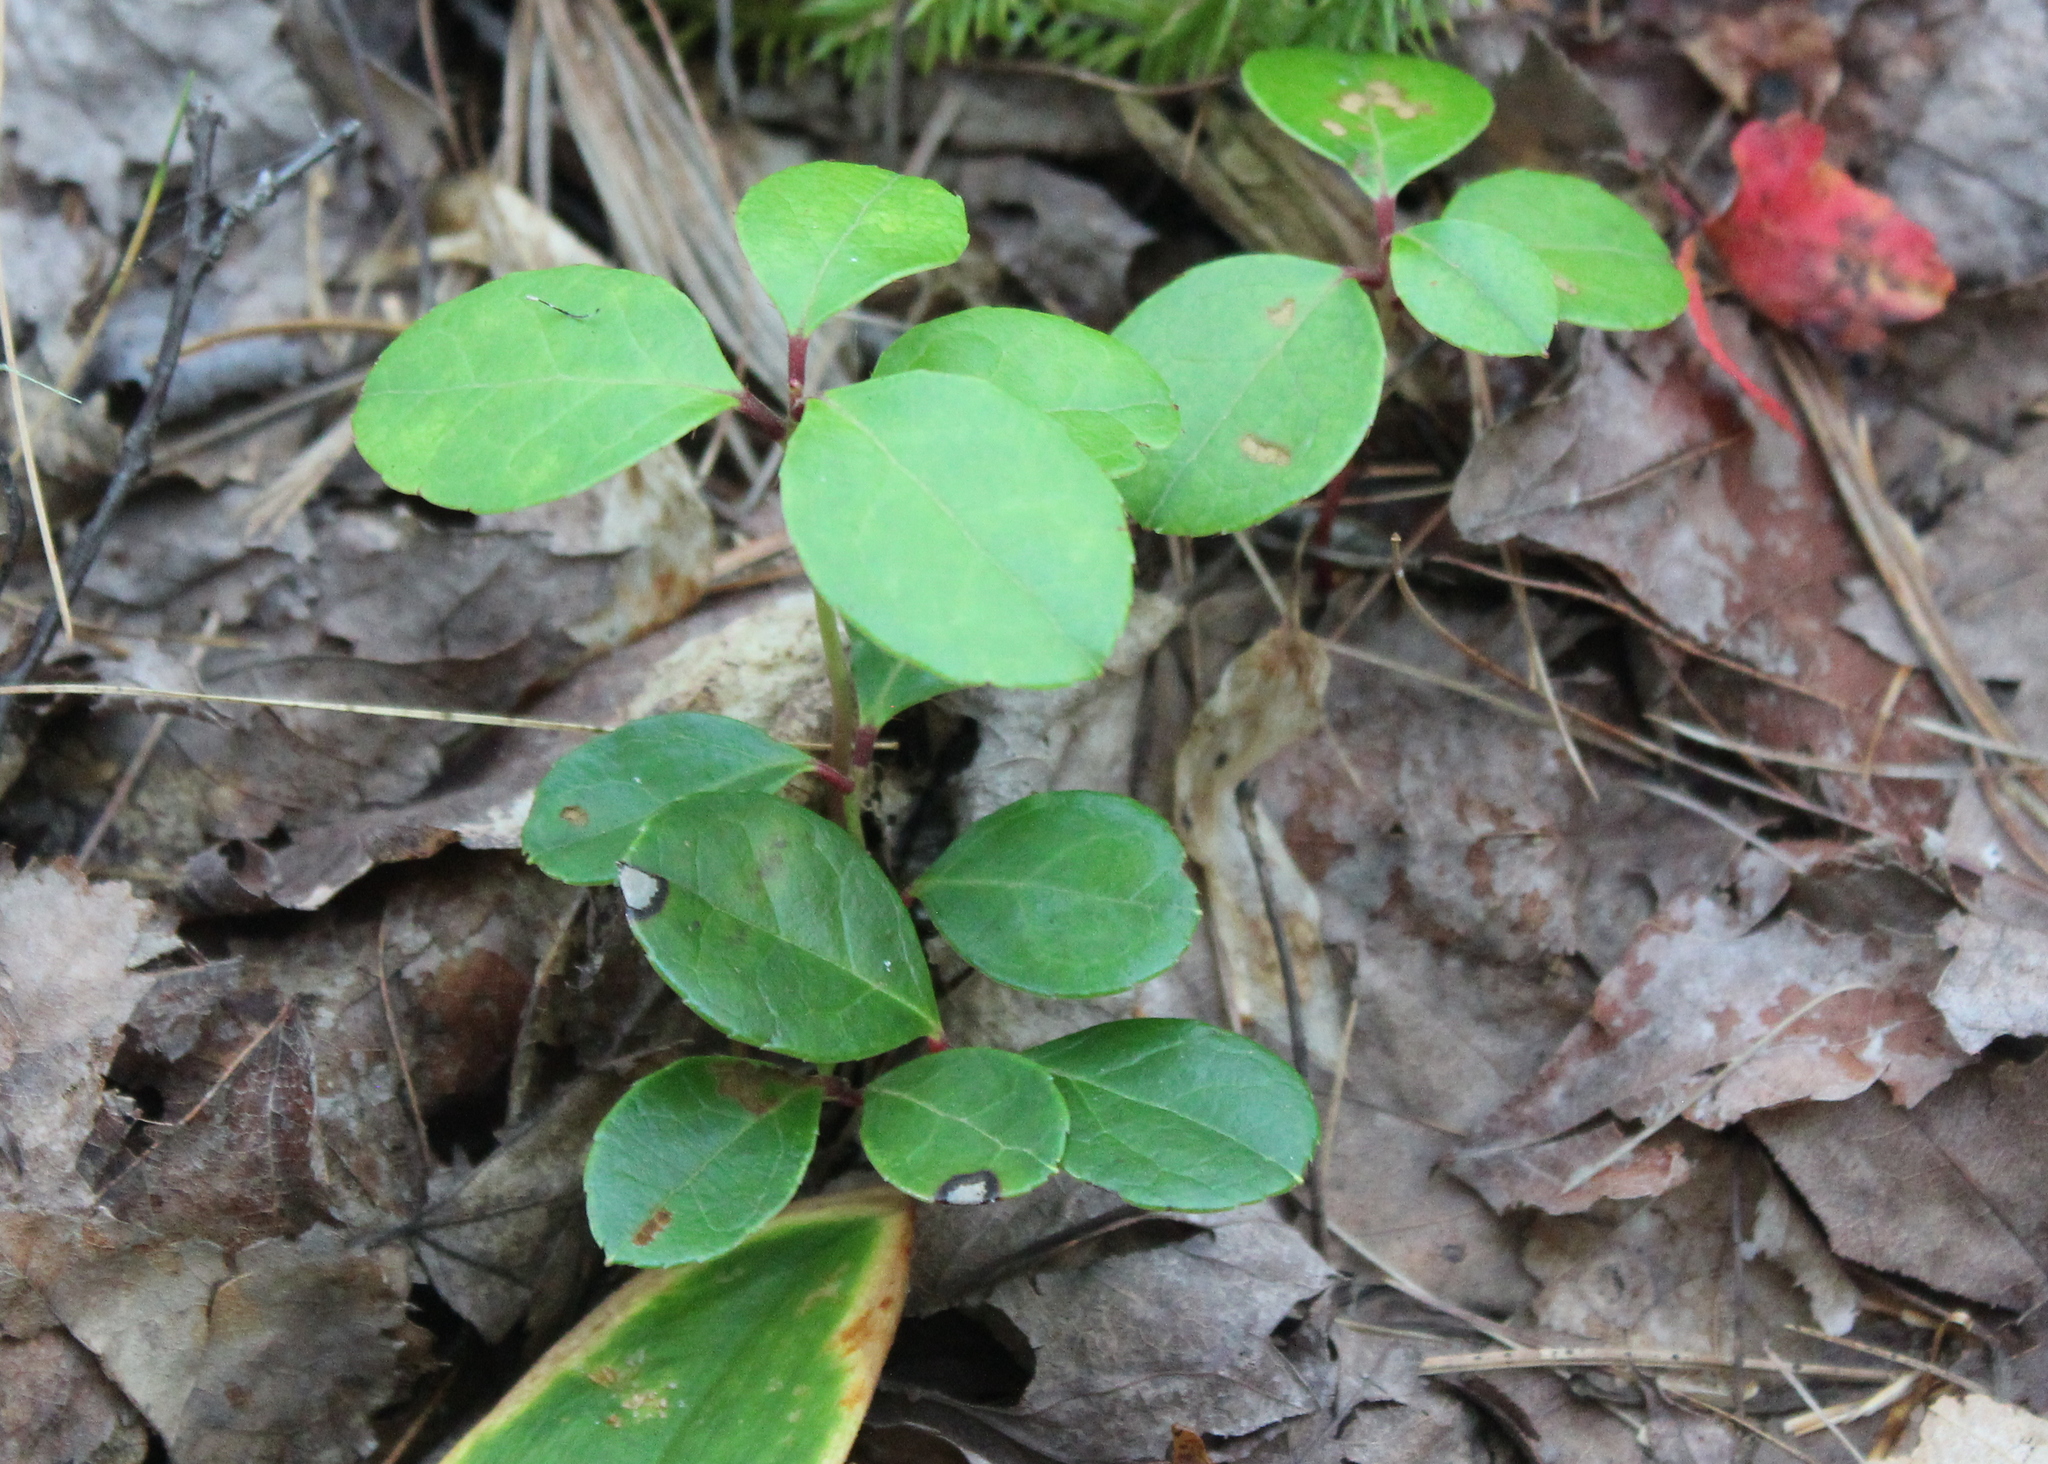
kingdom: Plantae
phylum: Tracheophyta
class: Magnoliopsida
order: Ericales
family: Ericaceae
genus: Gaultheria
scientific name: Gaultheria procumbens
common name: Checkerberry
